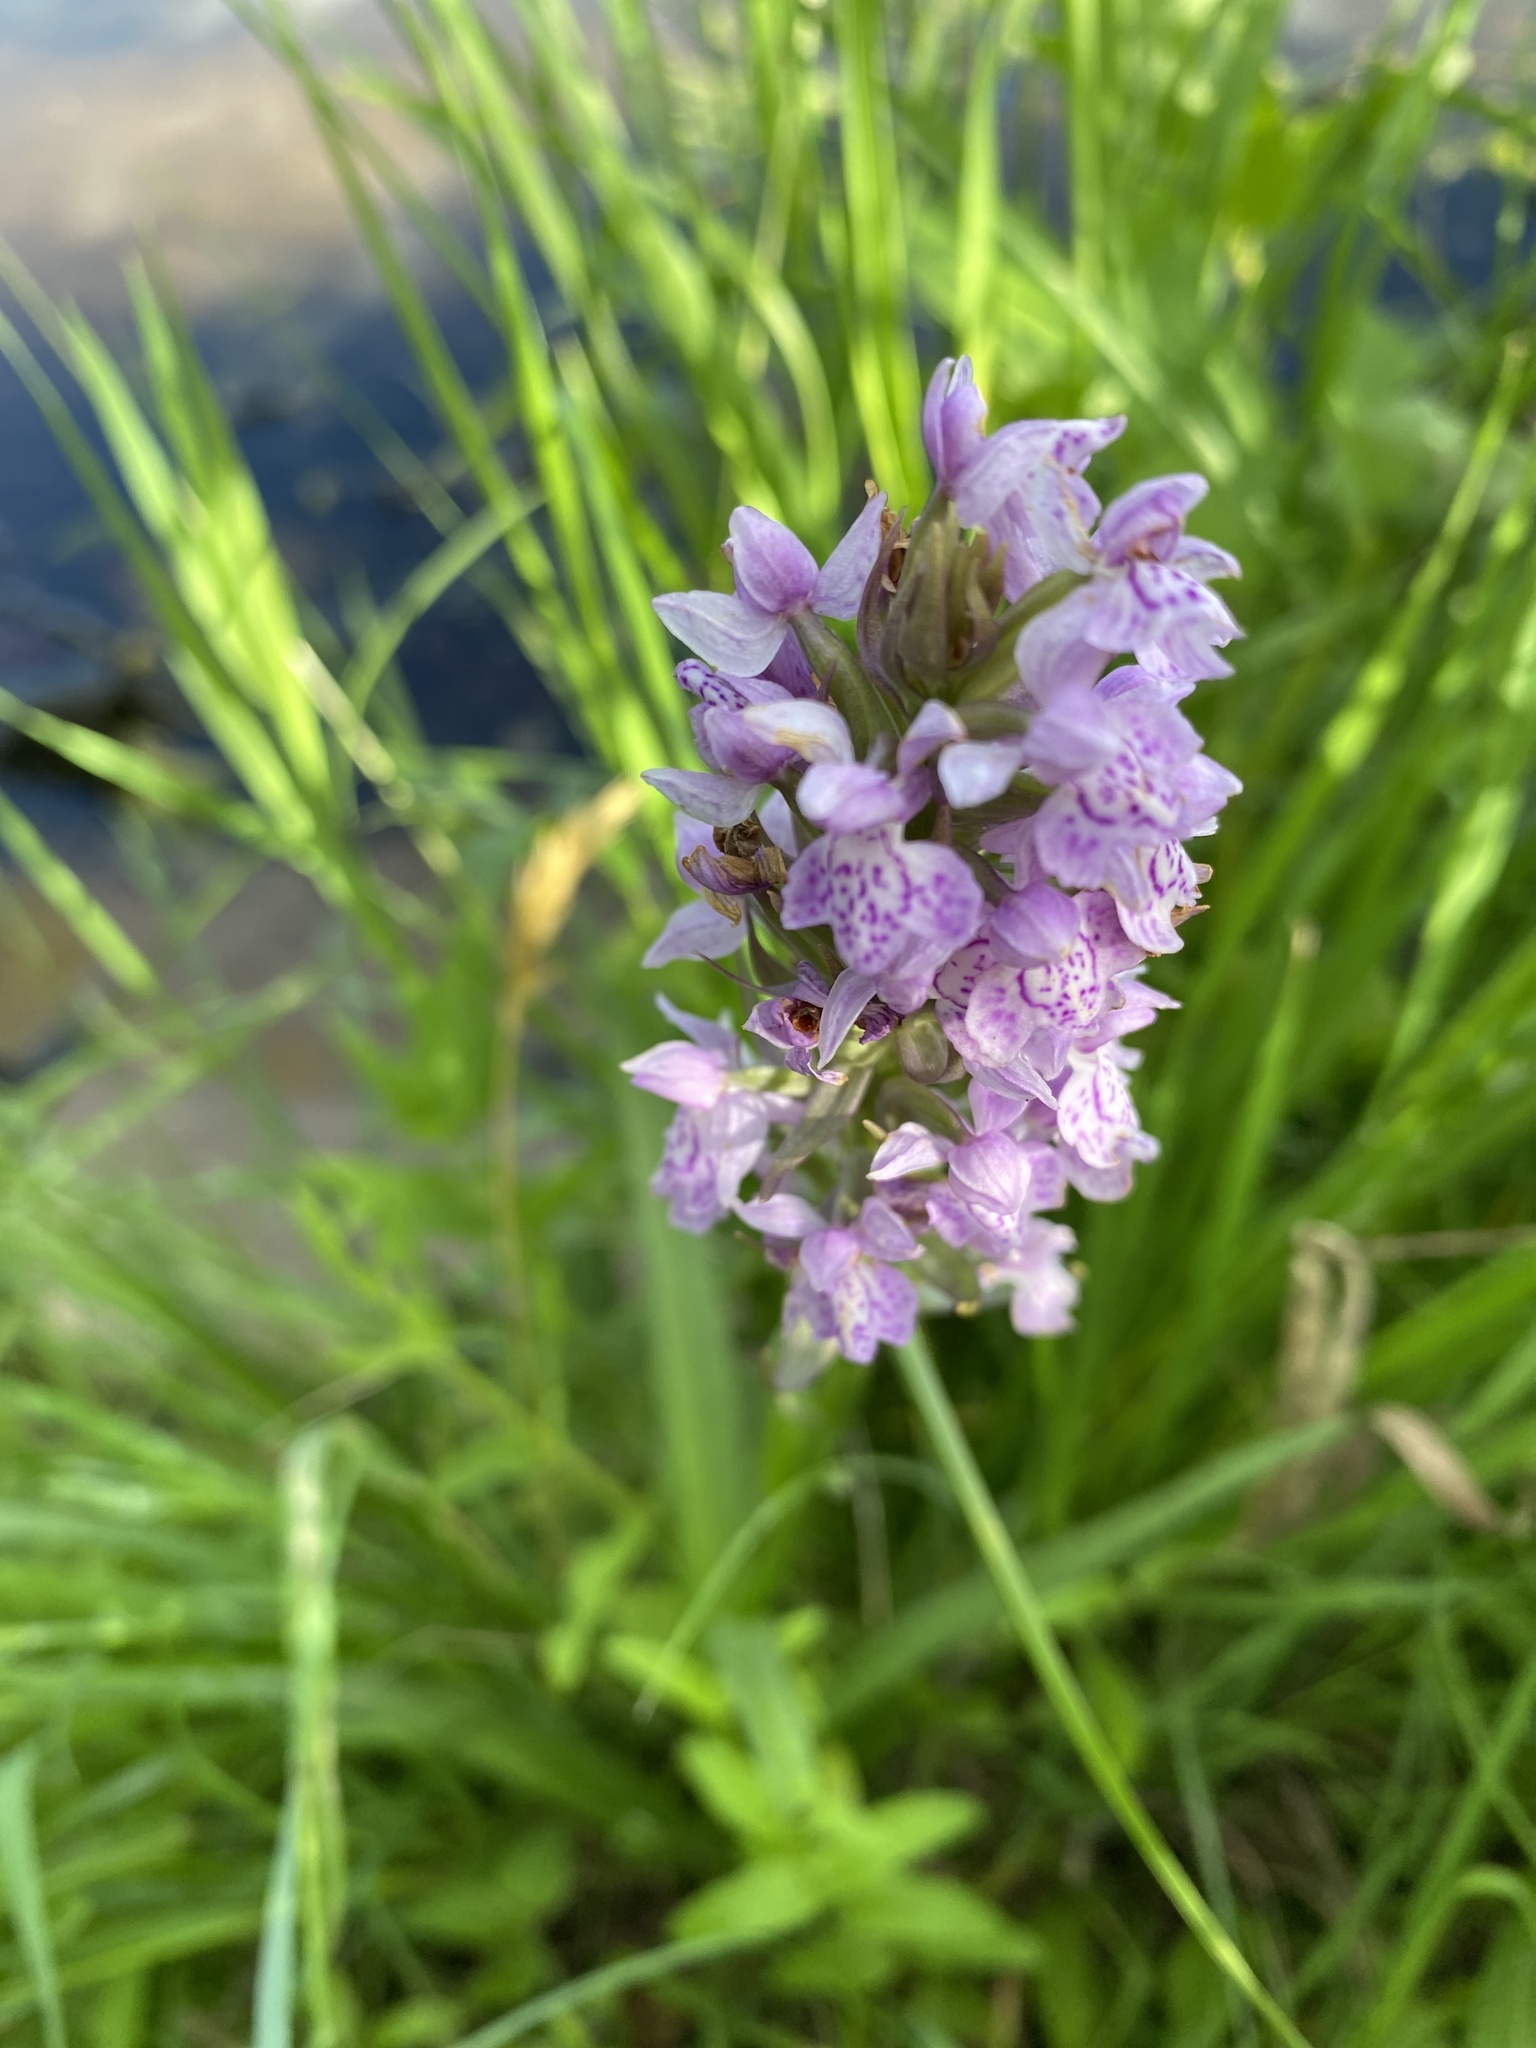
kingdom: Plantae
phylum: Tracheophyta
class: Liliopsida
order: Asparagales
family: Orchidaceae
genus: Dactylorhiza
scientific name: Dactylorhiza majalis
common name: Marsh orchid
